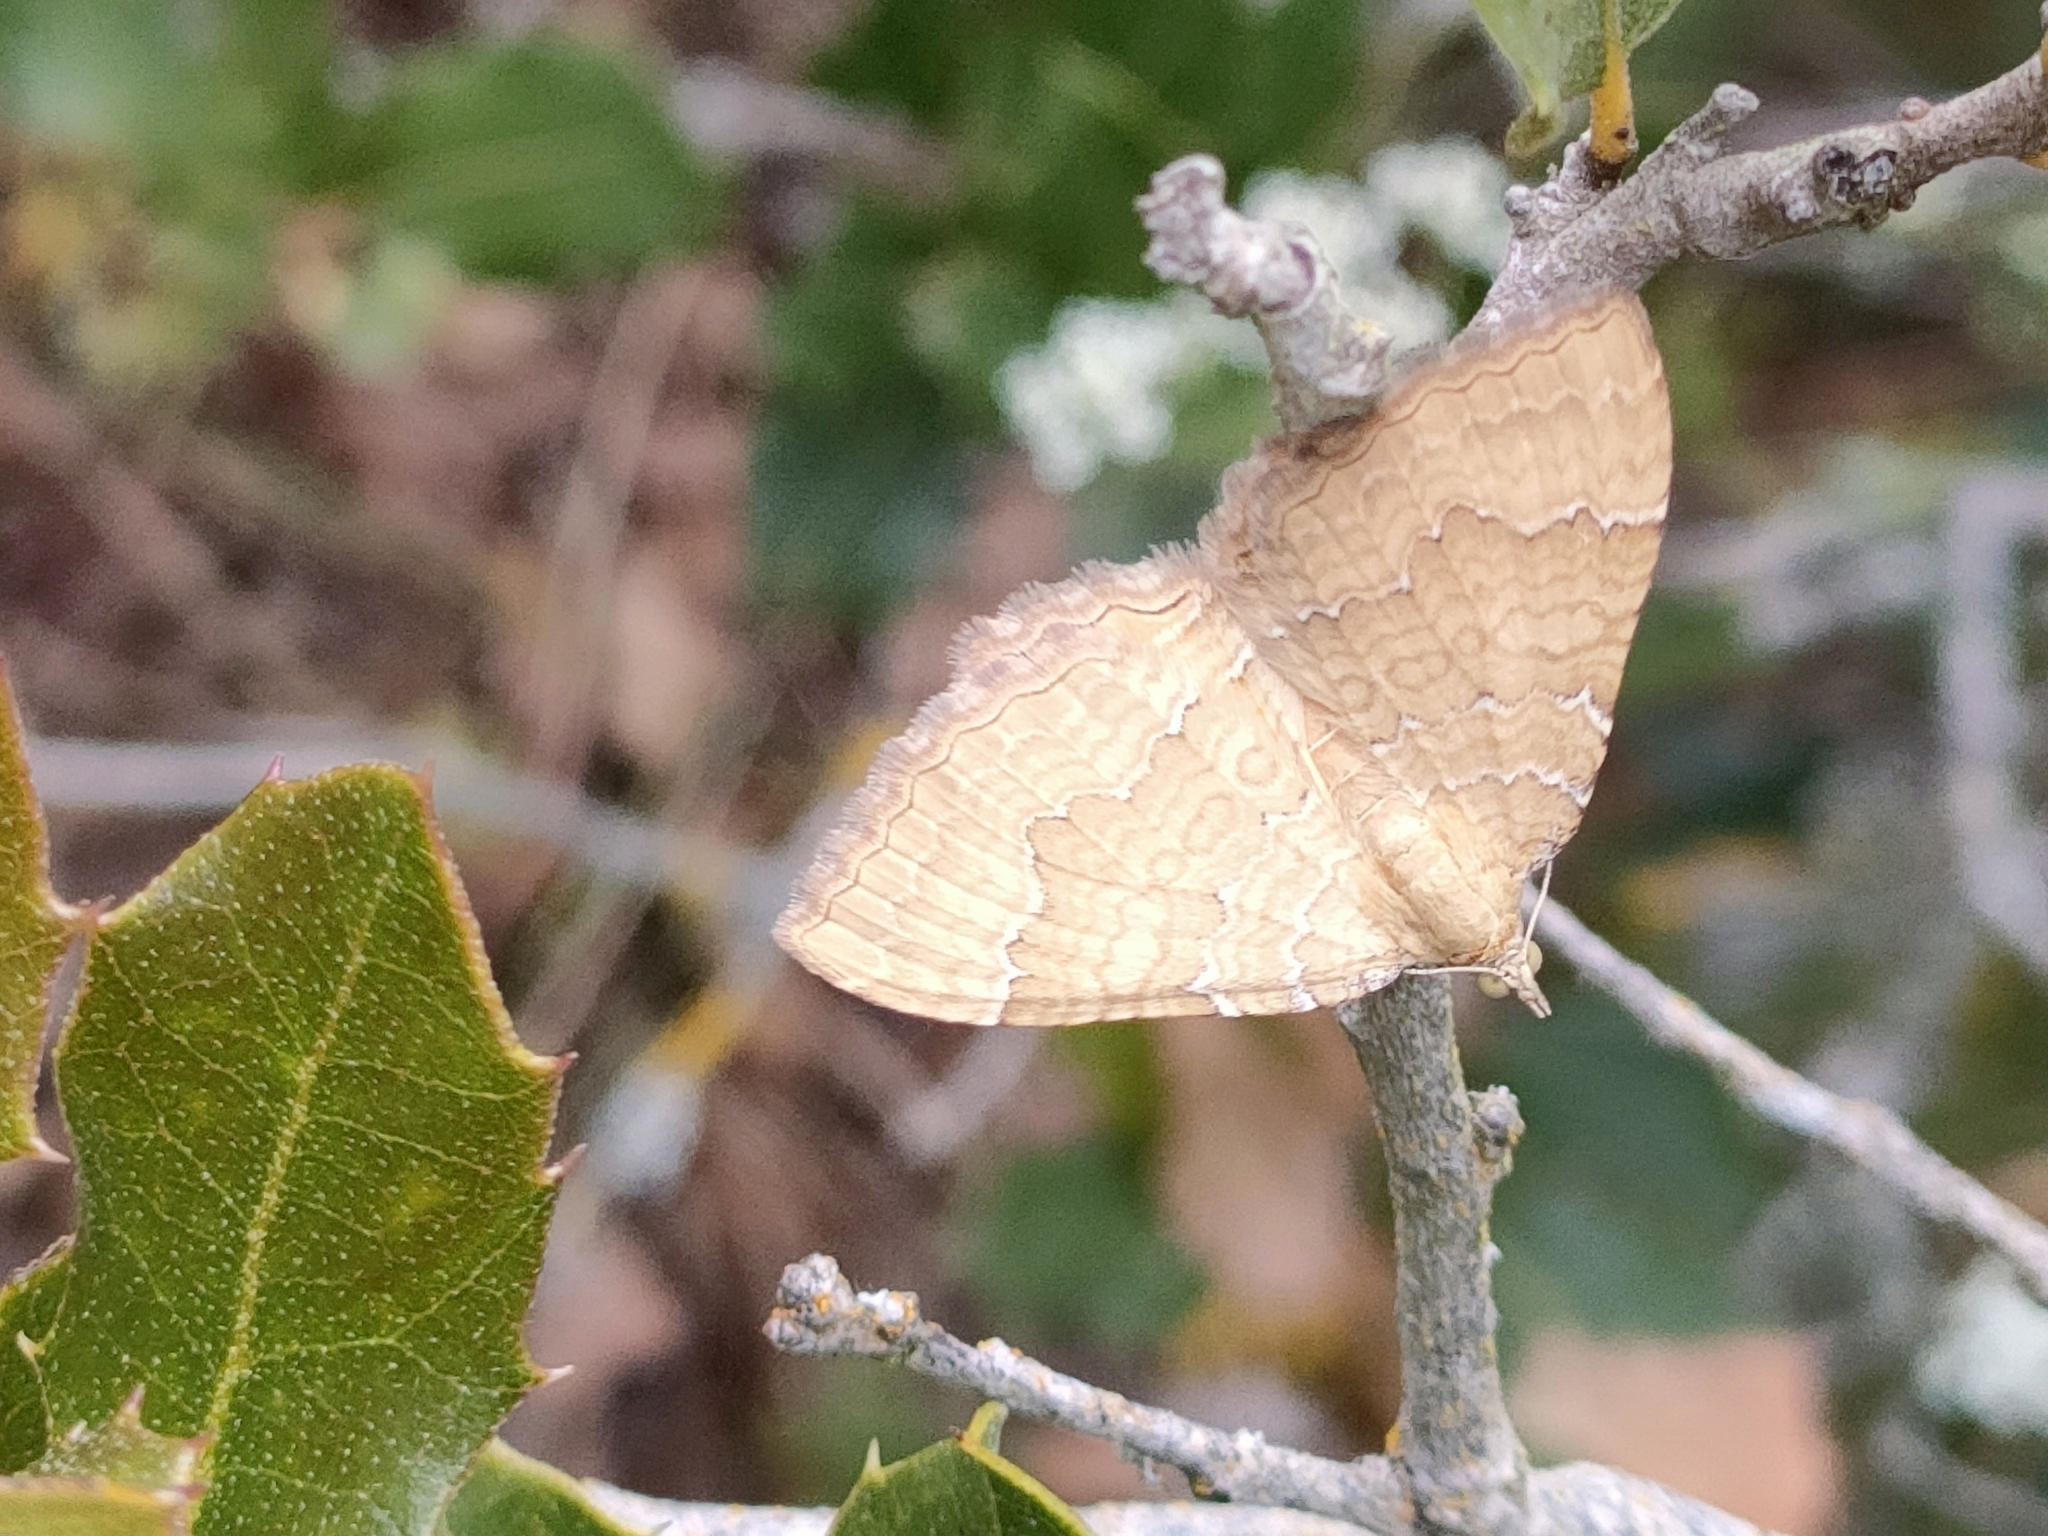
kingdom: Animalia
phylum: Arthropoda
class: Insecta
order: Lepidoptera
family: Geometridae
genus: Camptogramma
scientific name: Camptogramma bilineata
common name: Yellow shell
